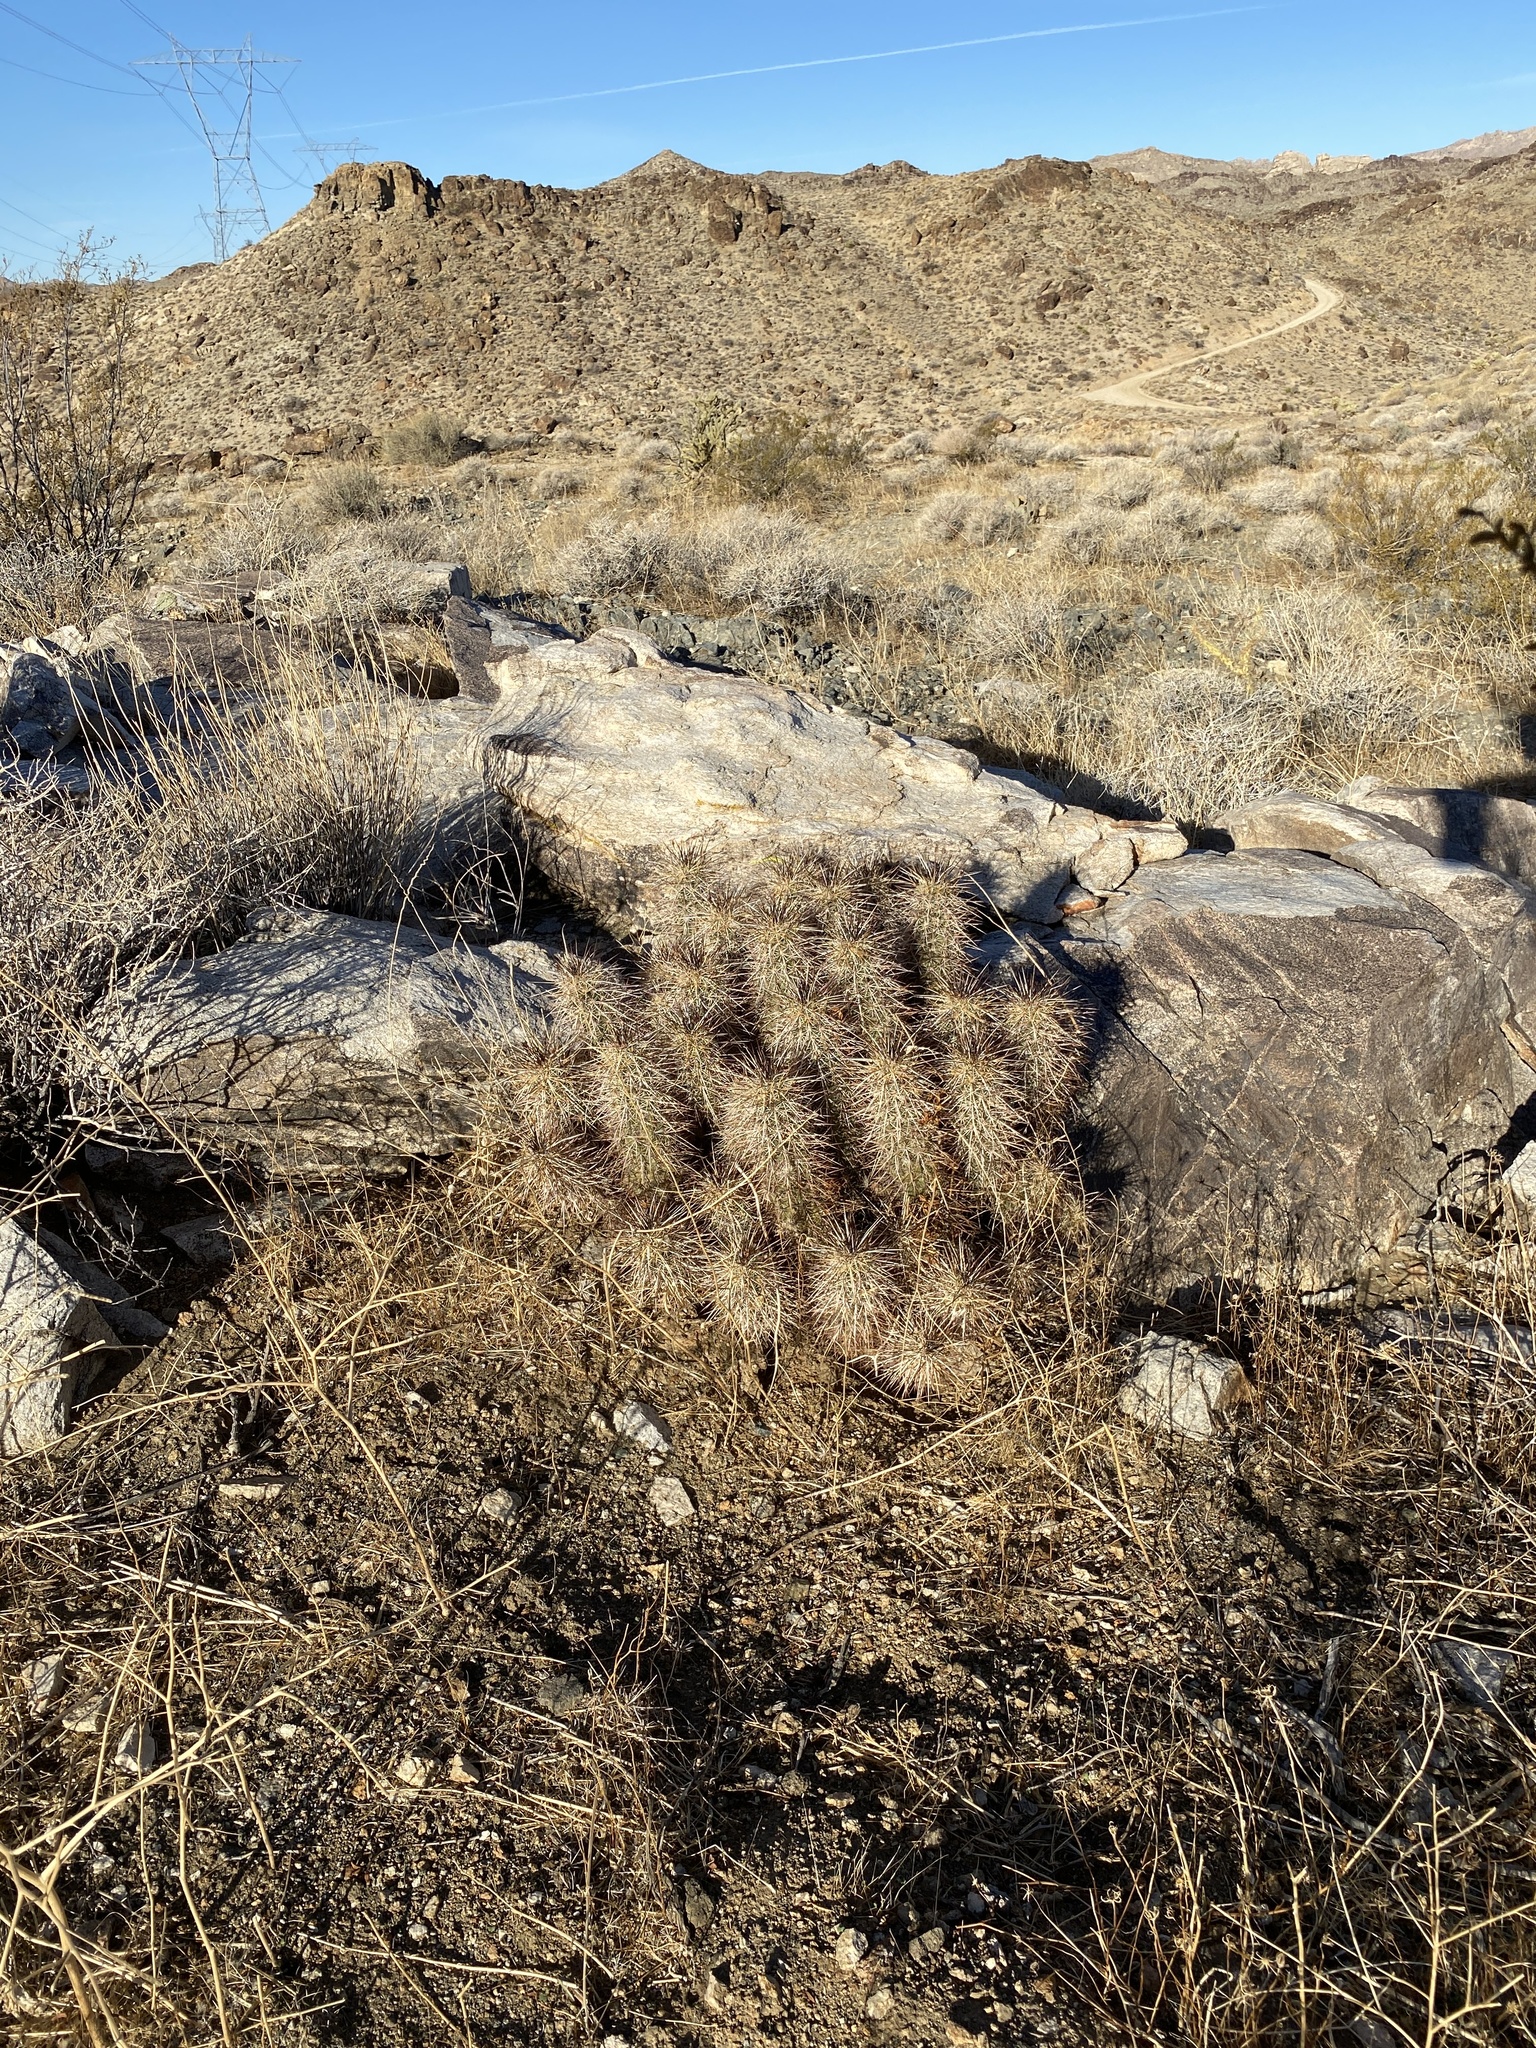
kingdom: Plantae
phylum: Tracheophyta
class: Magnoliopsida
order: Caryophyllales
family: Cactaceae
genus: Echinocereus
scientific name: Echinocereus engelmannii
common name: Engelmann's hedgehog cactus
